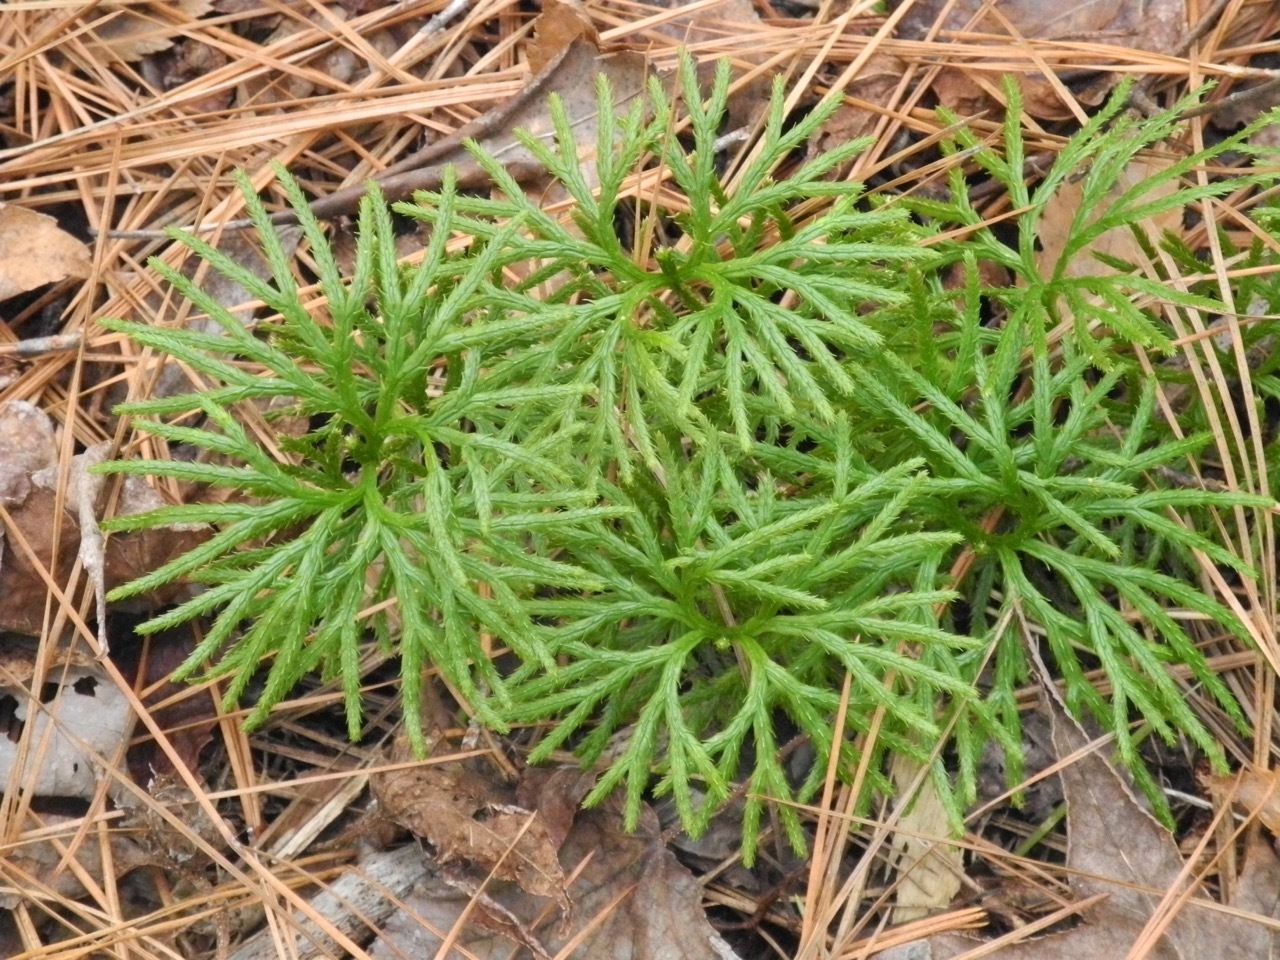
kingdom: Plantae
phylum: Tracheophyta
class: Lycopodiopsida
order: Lycopodiales
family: Lycopodiaceae
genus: Diphasiastrum
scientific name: Diphasiastrum digitatum
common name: Southern running-pine
